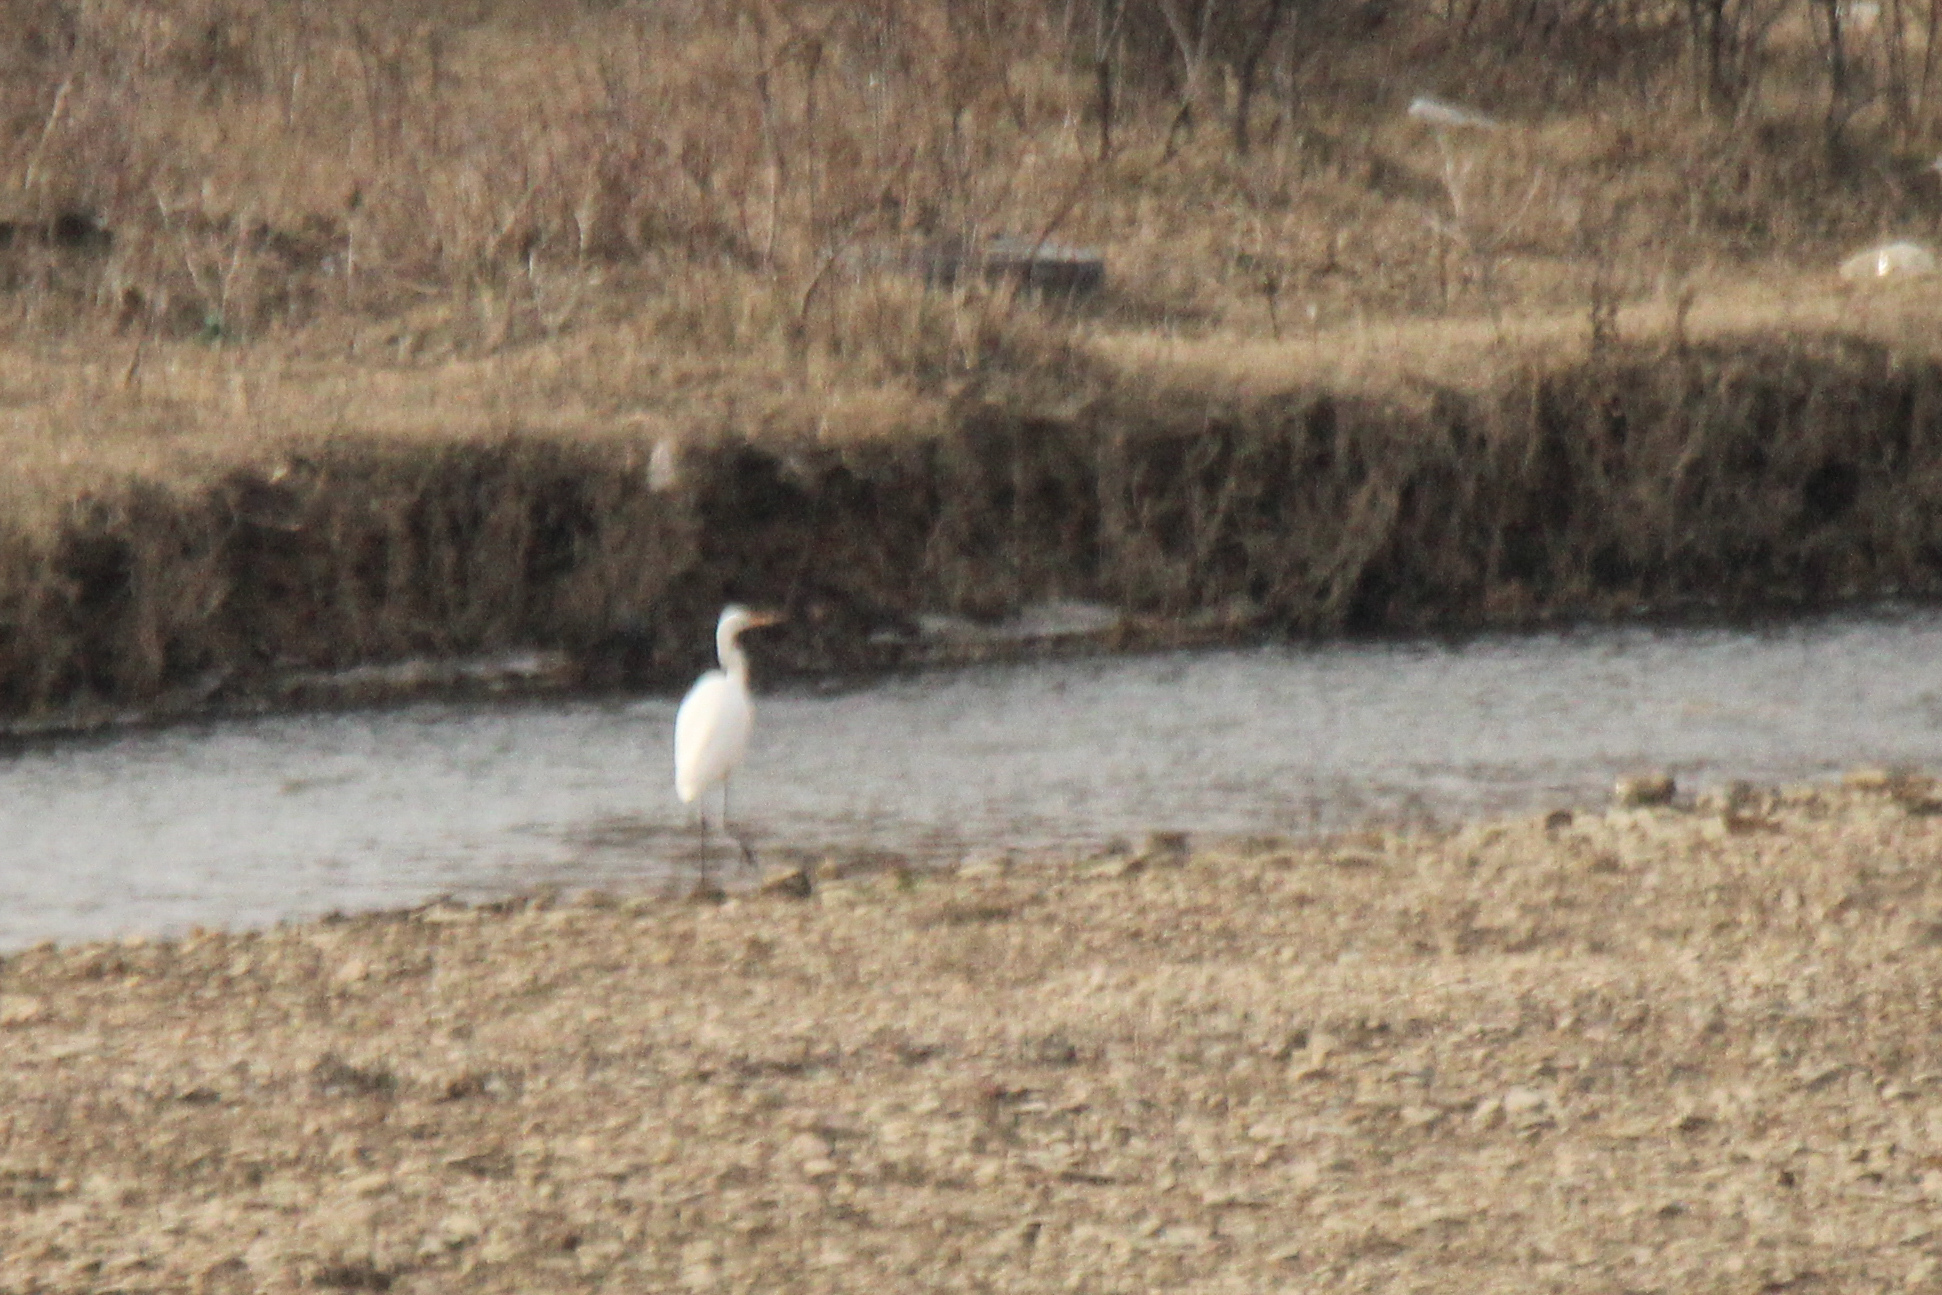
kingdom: Animalia
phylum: Chordata
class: Aves
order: Pelecaniformes
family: Ardeidae
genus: Ardea
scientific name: Ardea alba
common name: Great egret
